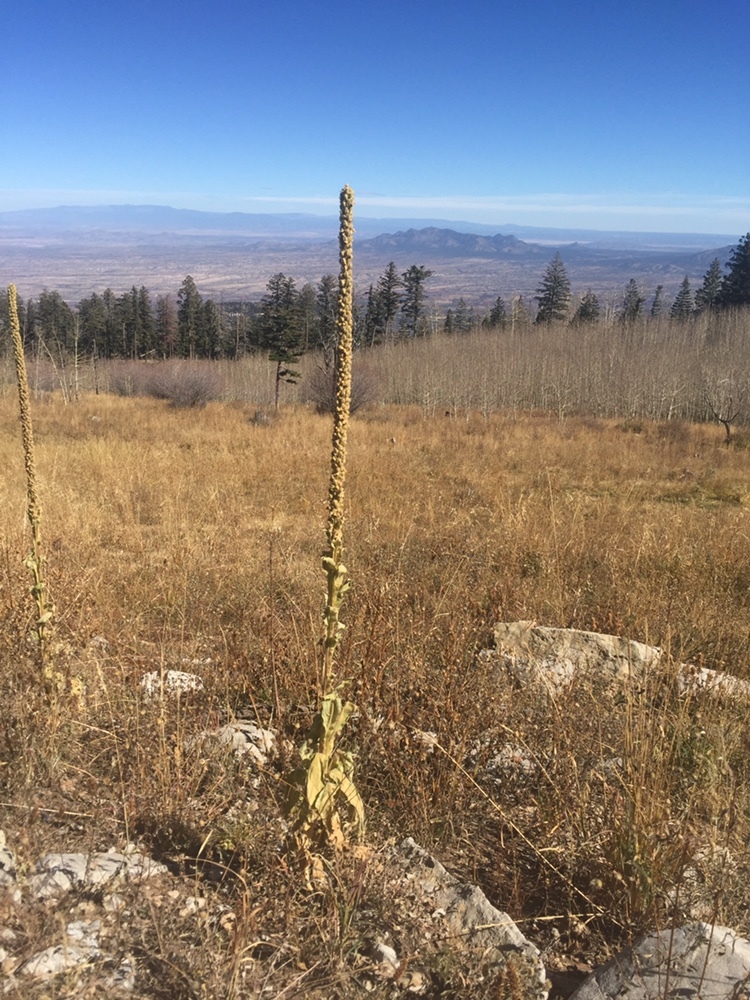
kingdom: Plantae
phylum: Tracheophyta
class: Magnoliopsida
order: Lamiales
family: Scrophulariaceae
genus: Verbascum
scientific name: Verbascum thapsus
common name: Common mullein
